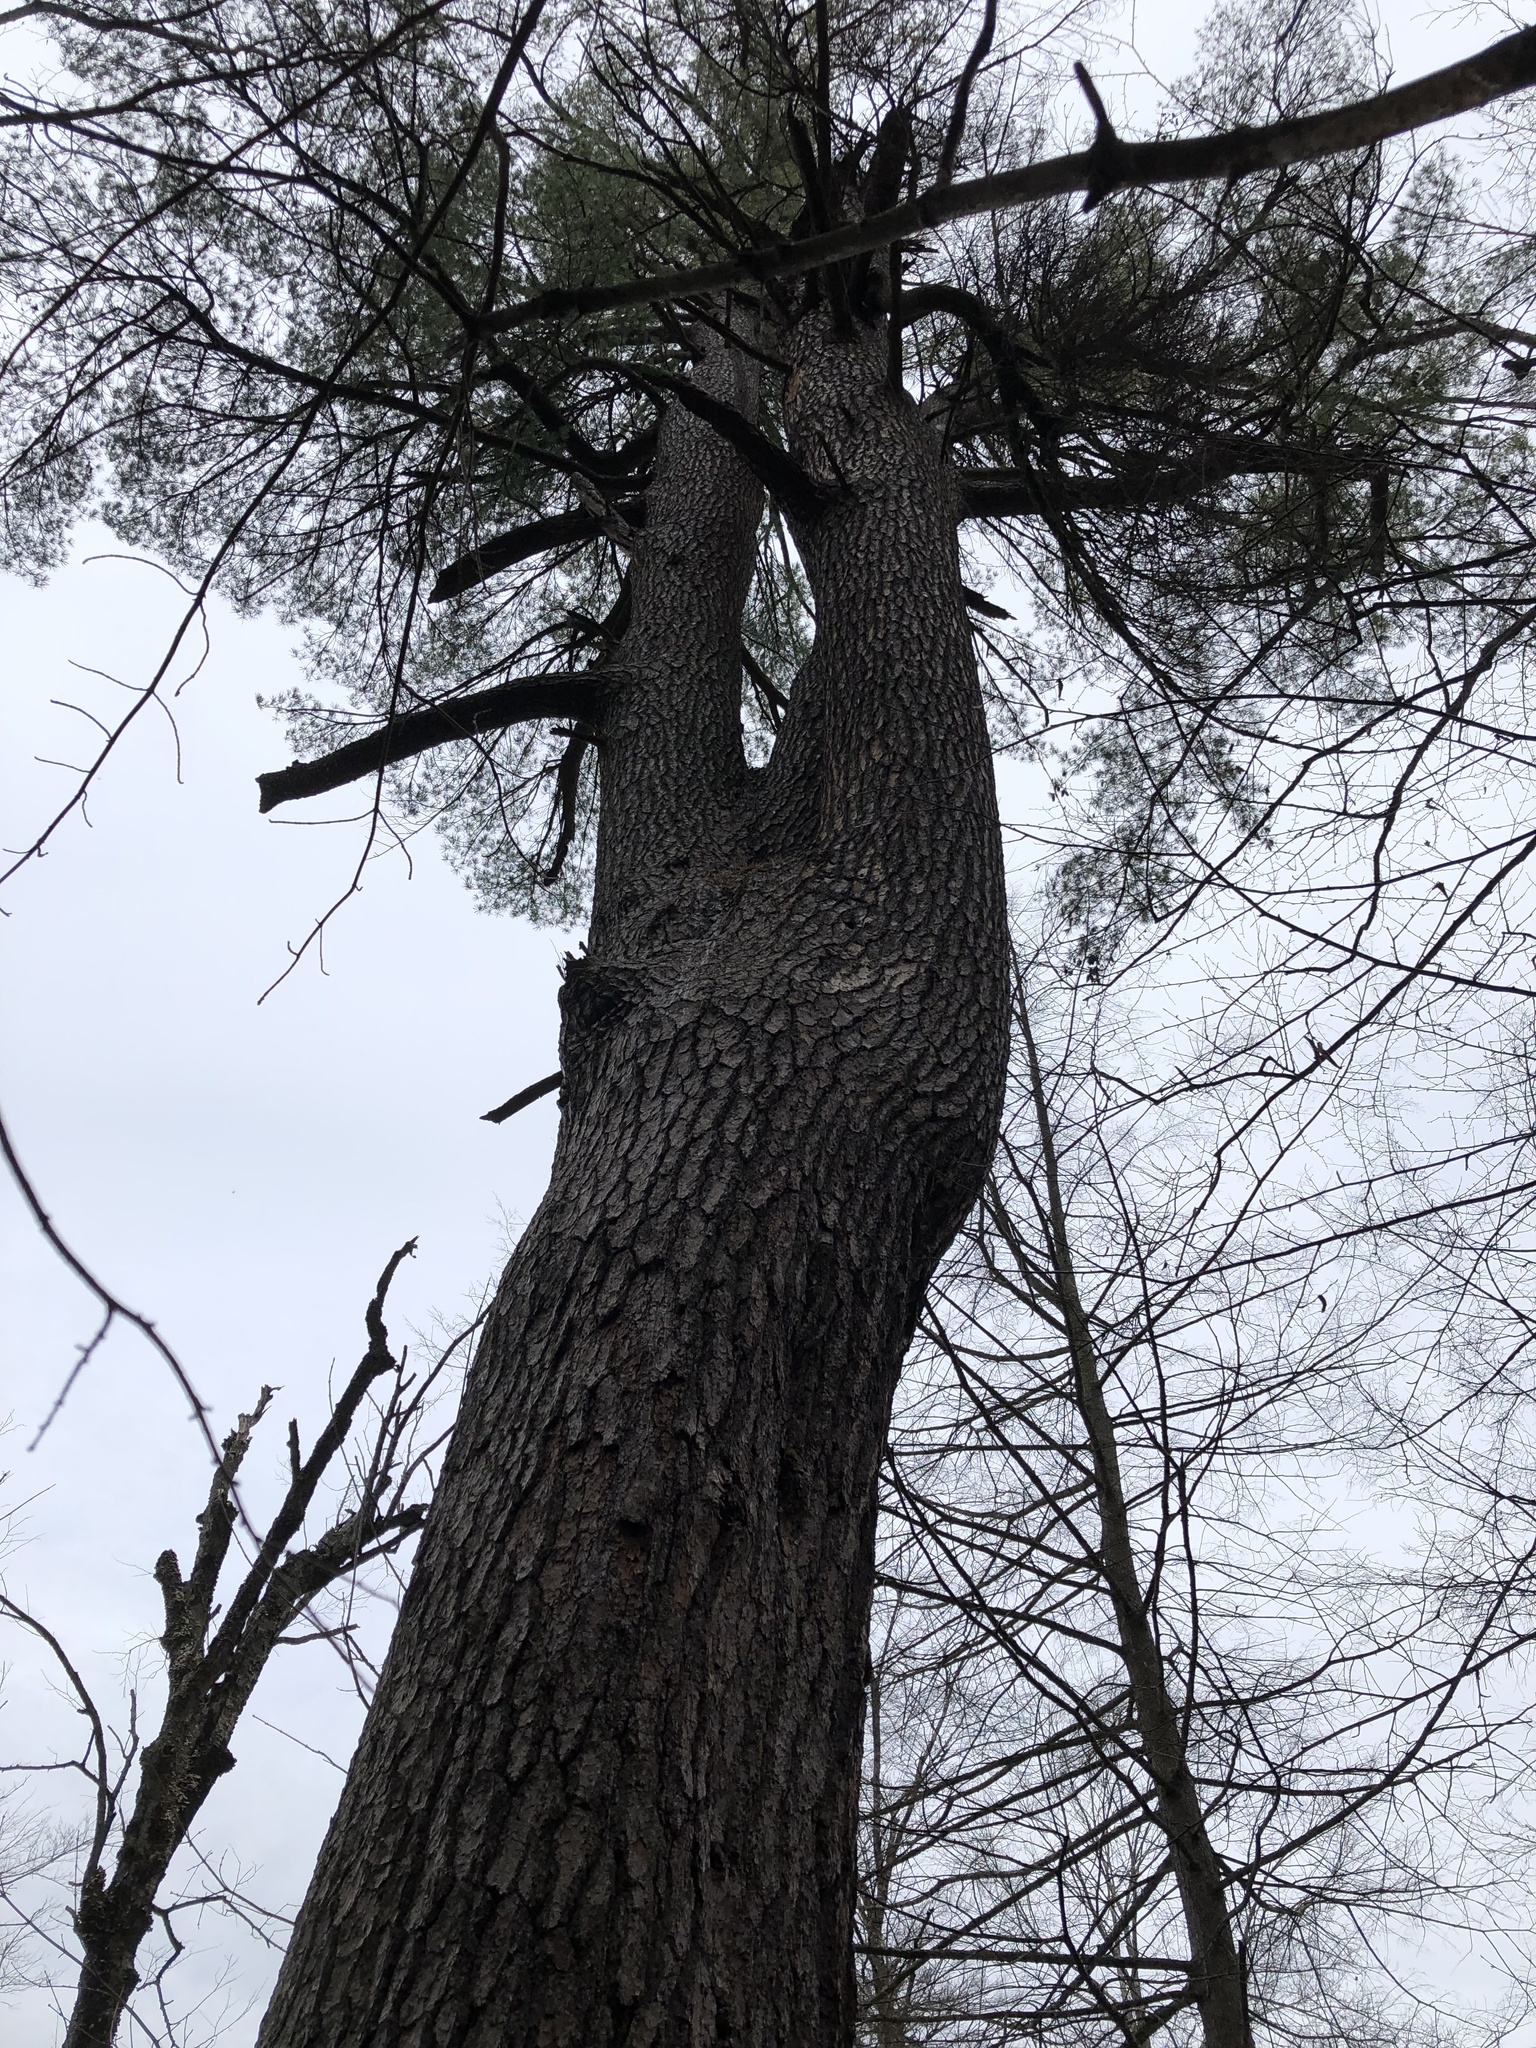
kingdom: Plantae
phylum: Tracheophyta
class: Pinopsida
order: Pinales
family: Pinaceae
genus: Pinus
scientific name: Pinus strobus
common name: Weymouth pine
